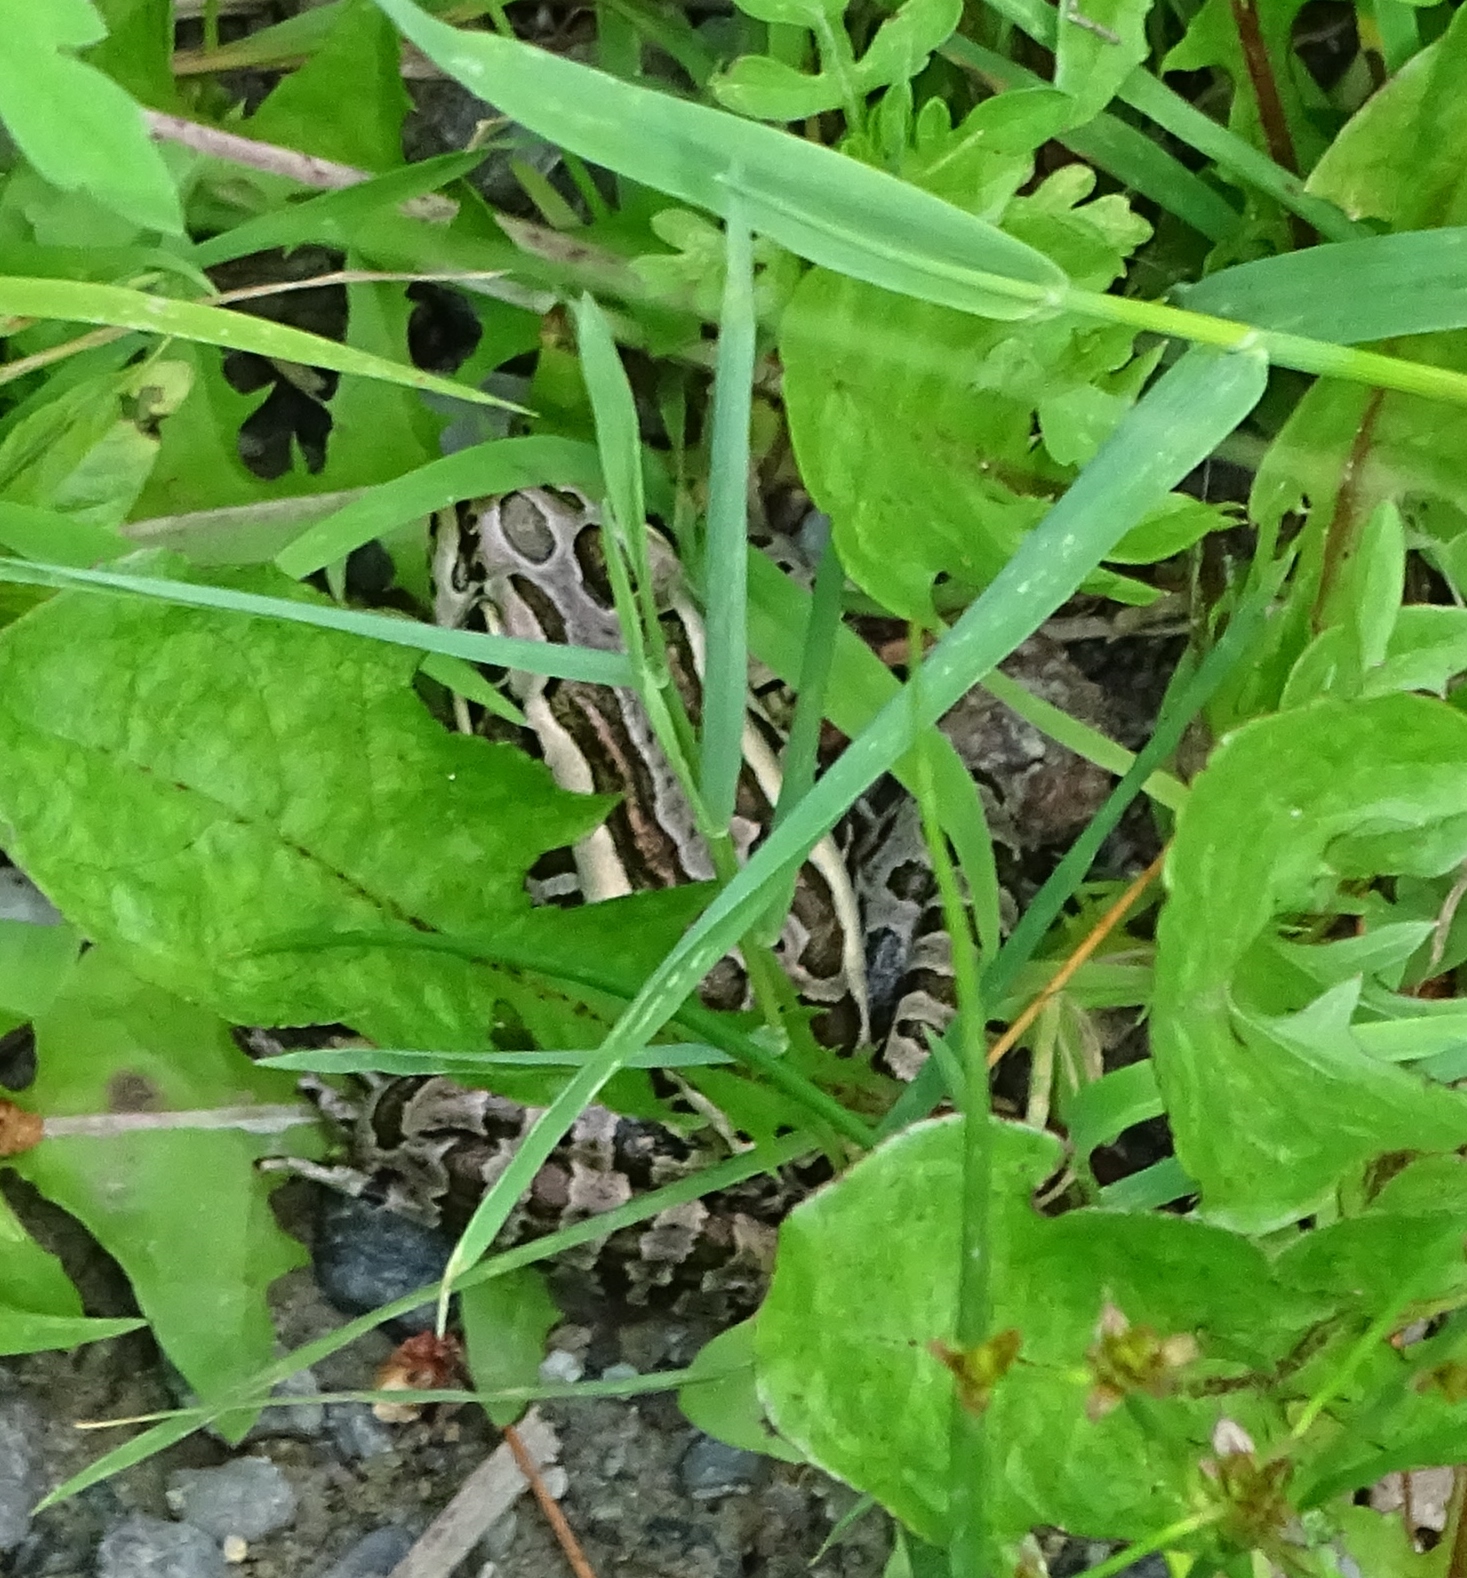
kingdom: Animalia
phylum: Chordata
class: Amphibia
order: Anura
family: Ranidae
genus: Lithobates
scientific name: Lithobates palustris
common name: Pickerel frog
